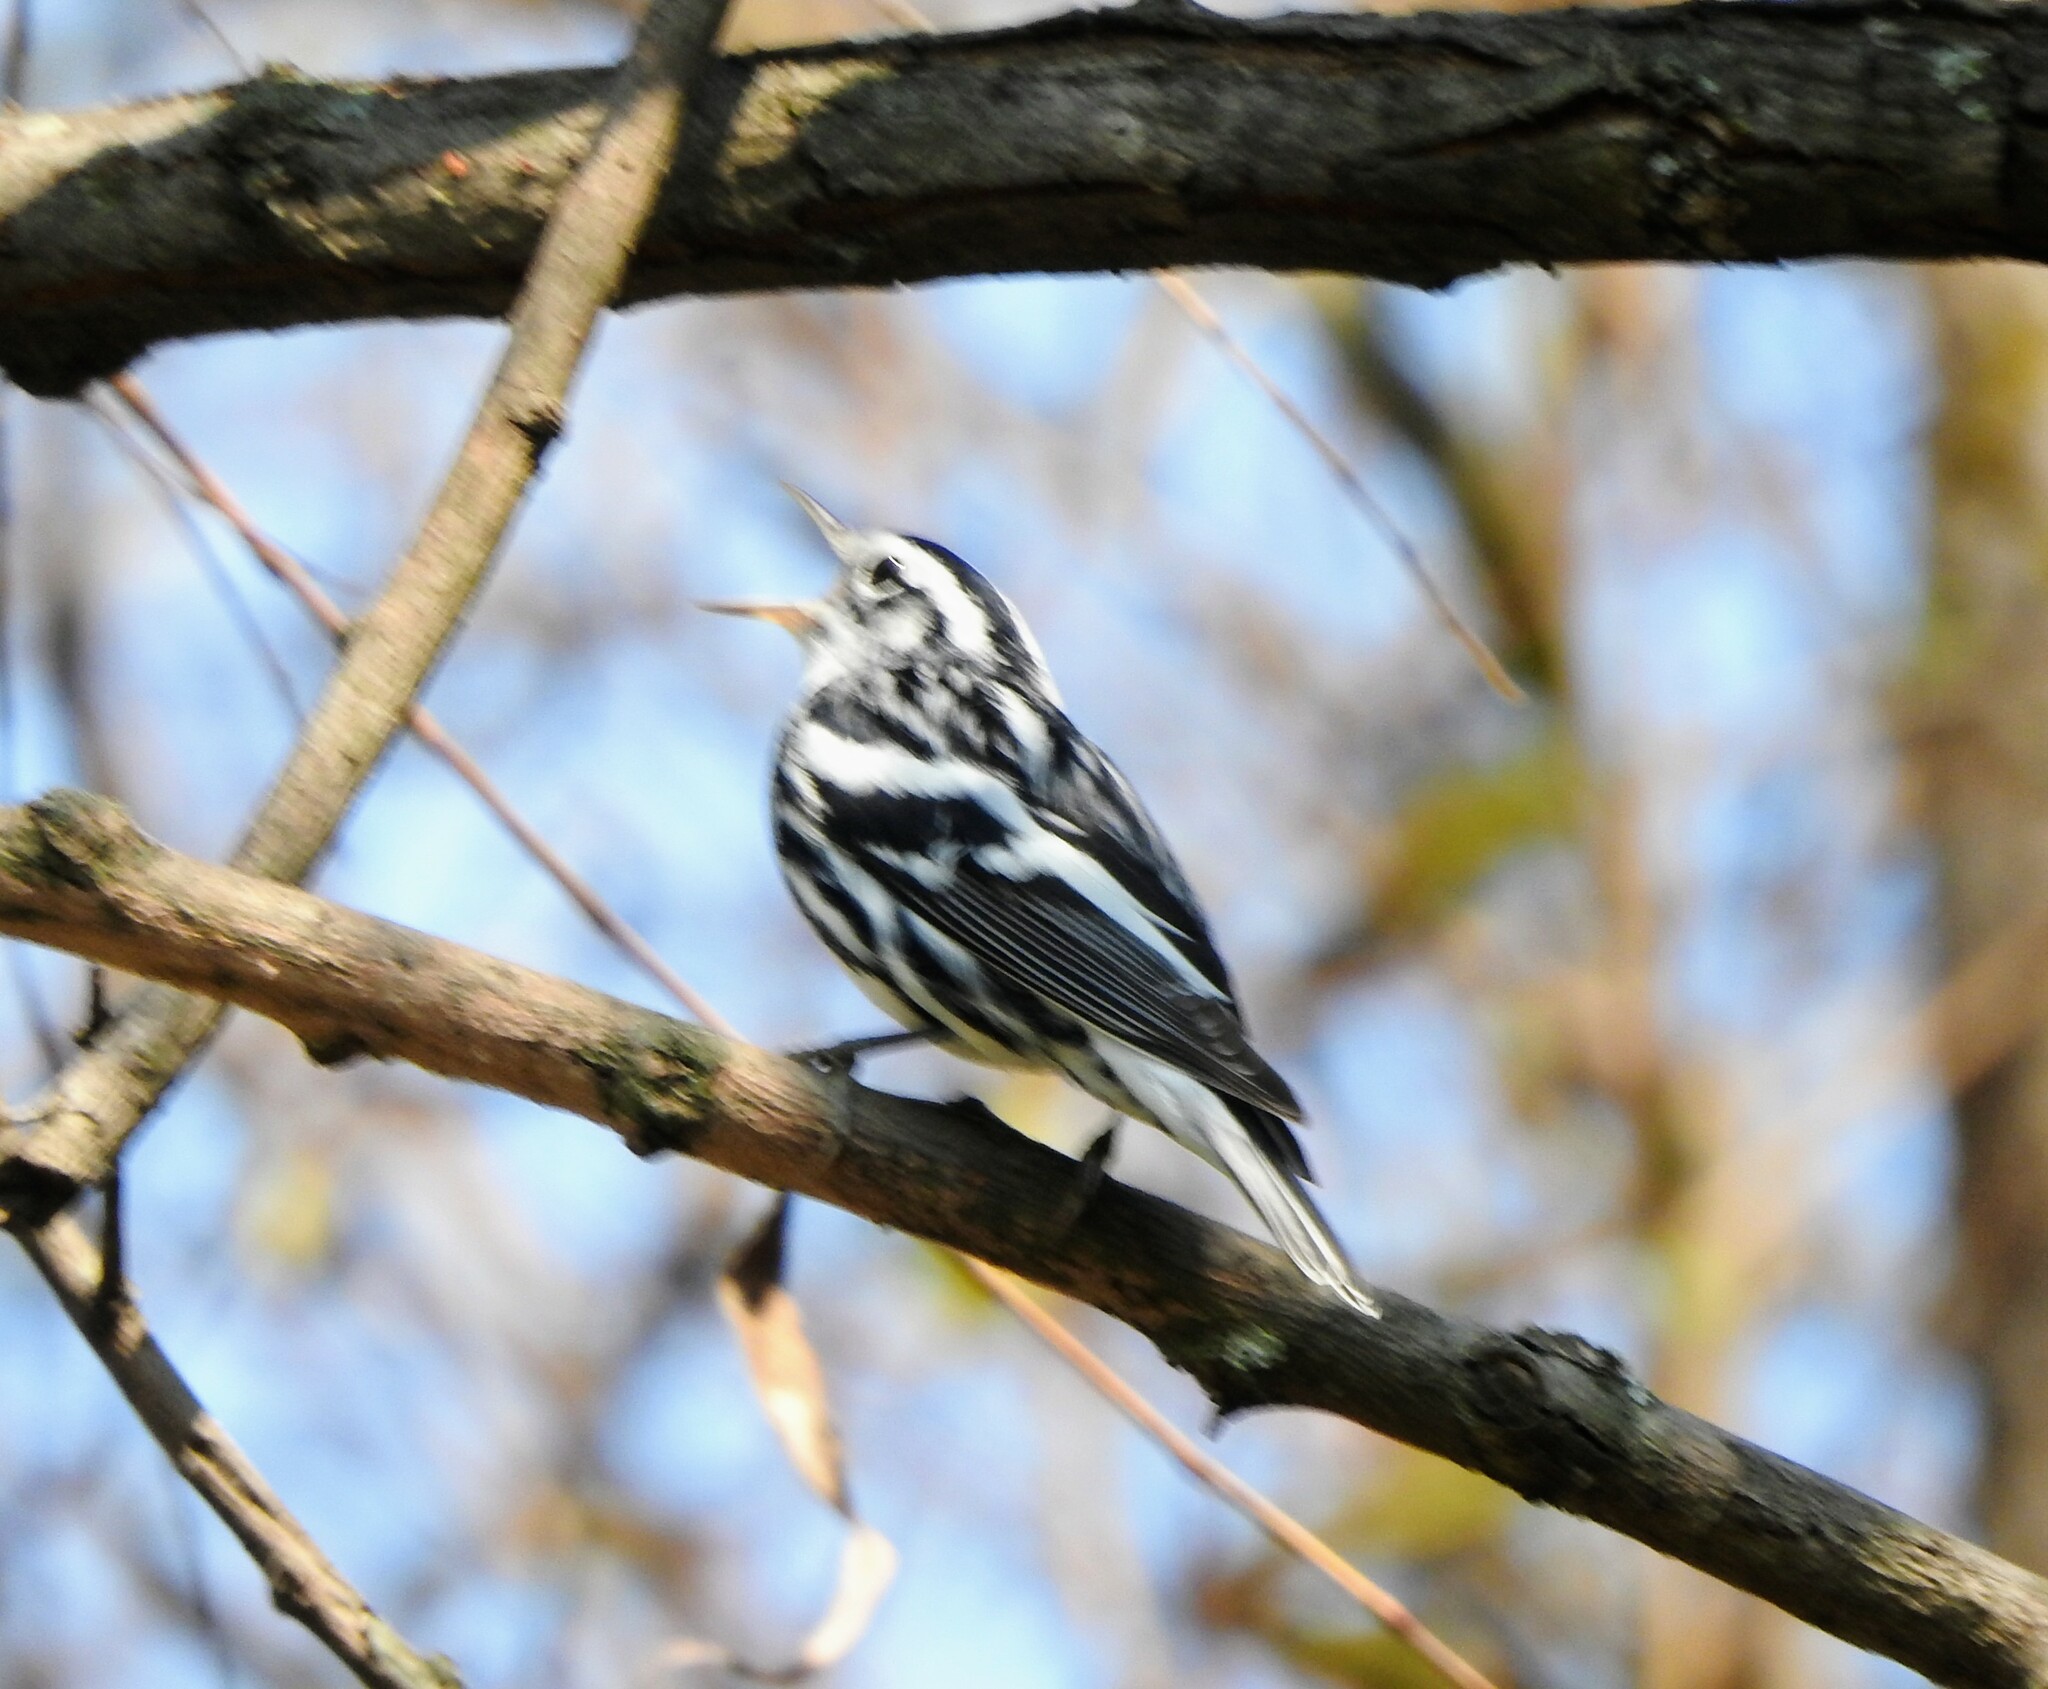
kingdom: Animalia
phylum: Chordata
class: Aves
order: Passeriformes
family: Parulidae
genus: Mniotilta
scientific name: Mniotilta varia
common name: Black-and-white warbler
